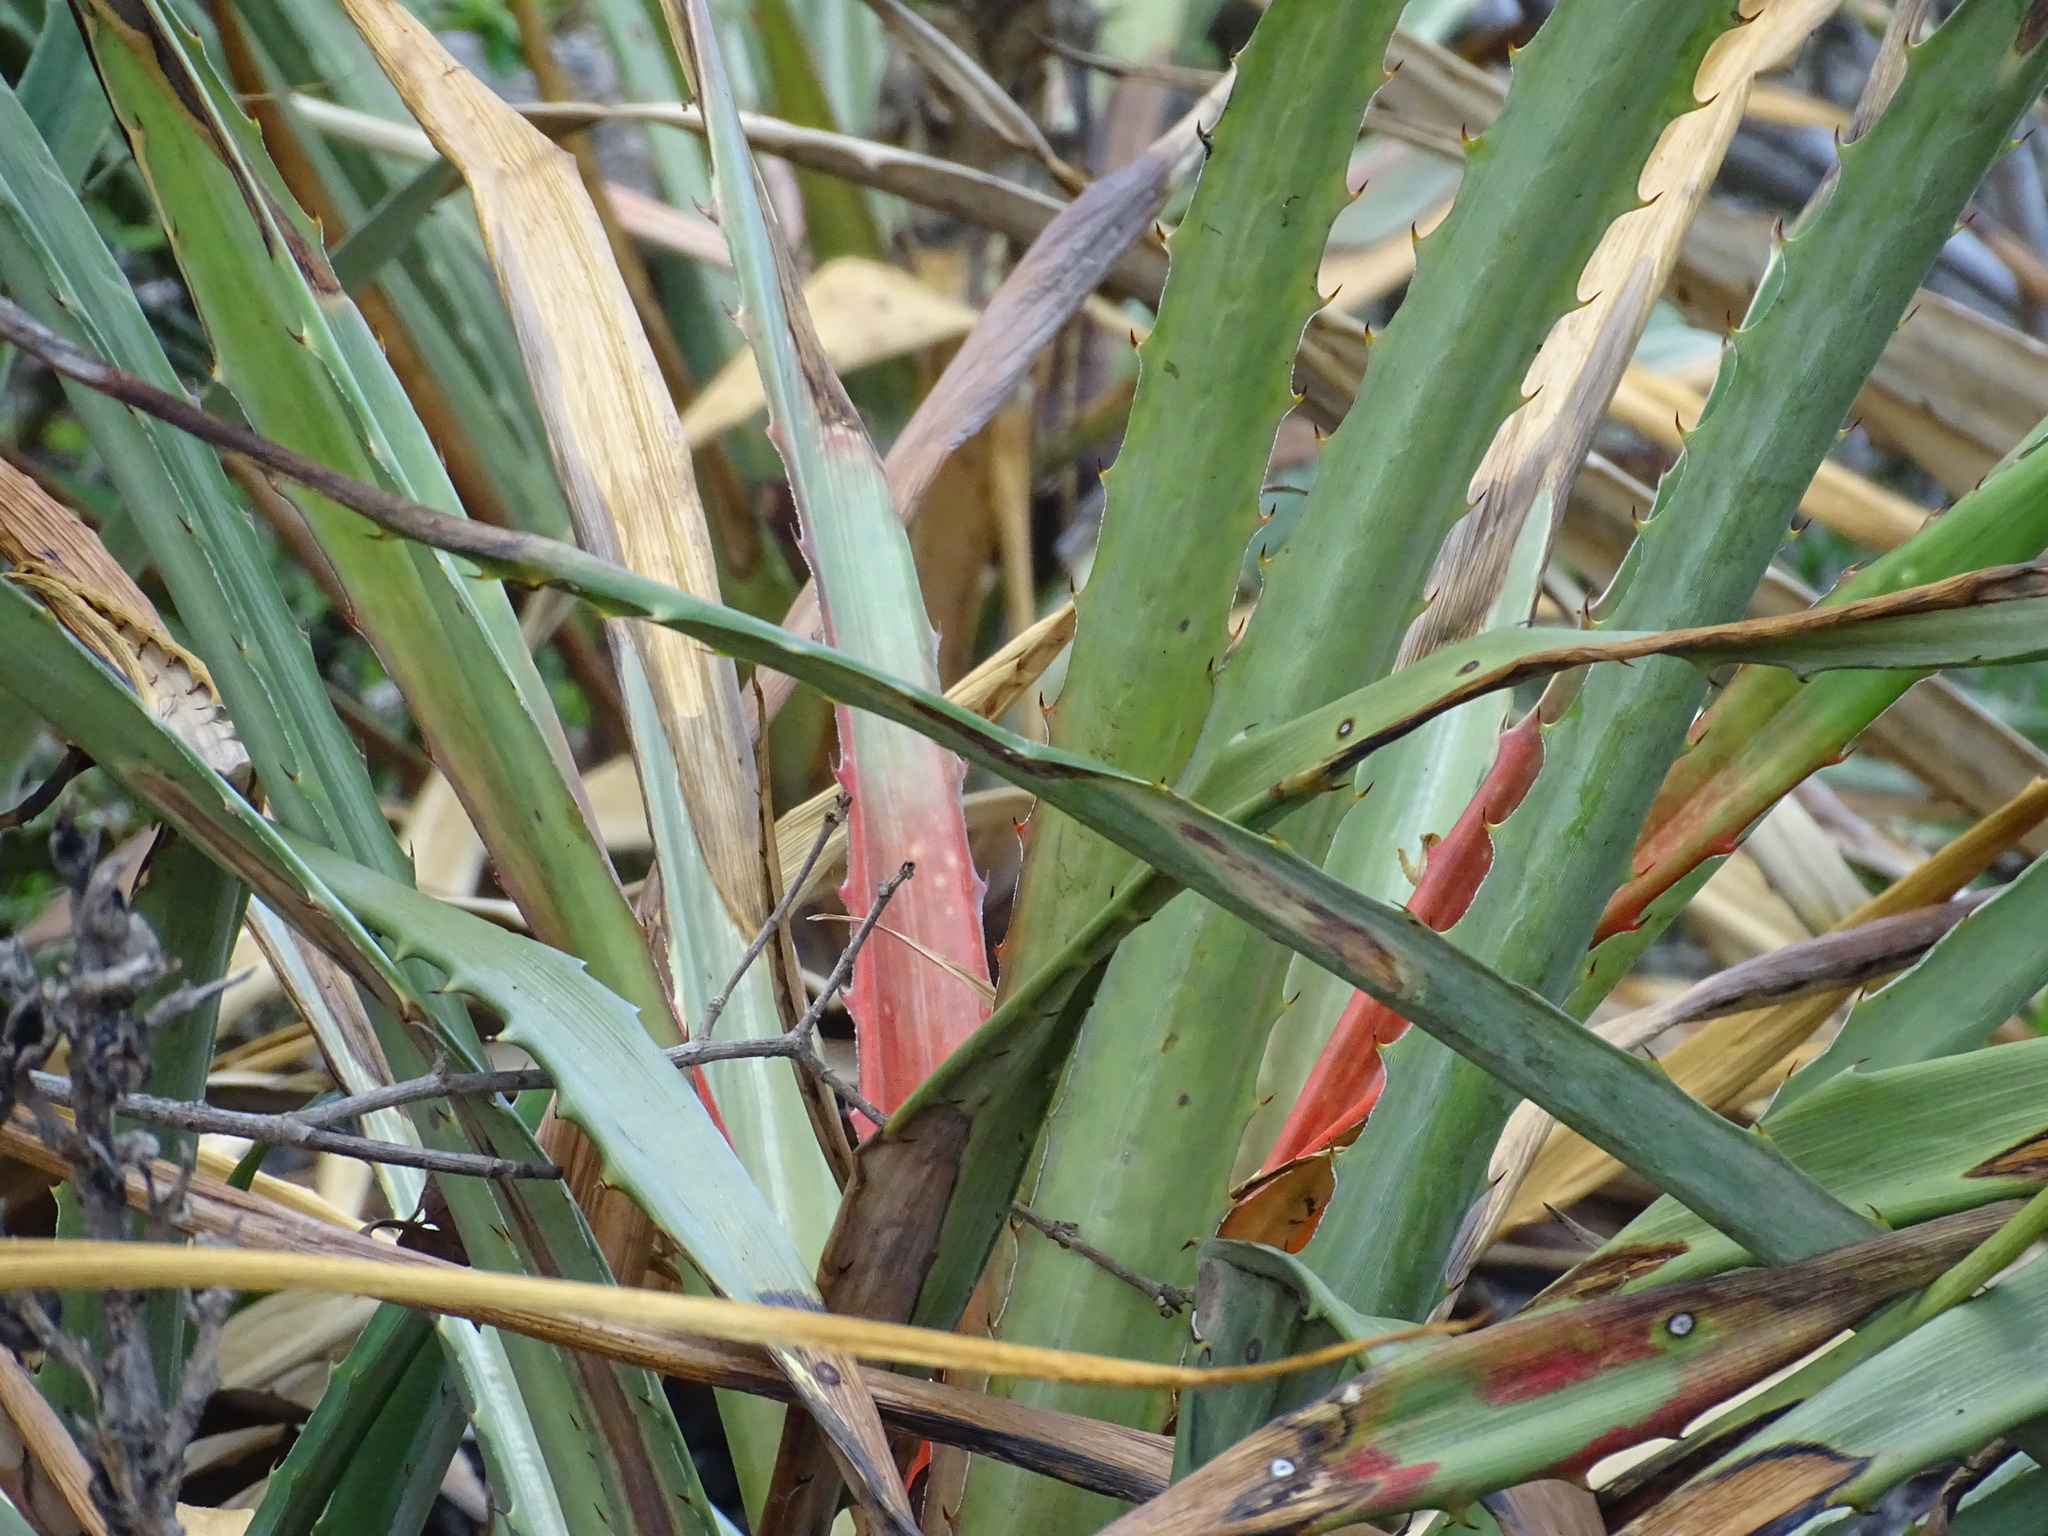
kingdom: Plantae
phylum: Tracheophyta
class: Liliopsida
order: Poales
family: Bromeliaceae
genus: Bromelia
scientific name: Bromelia pinguin
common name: Pinguin
